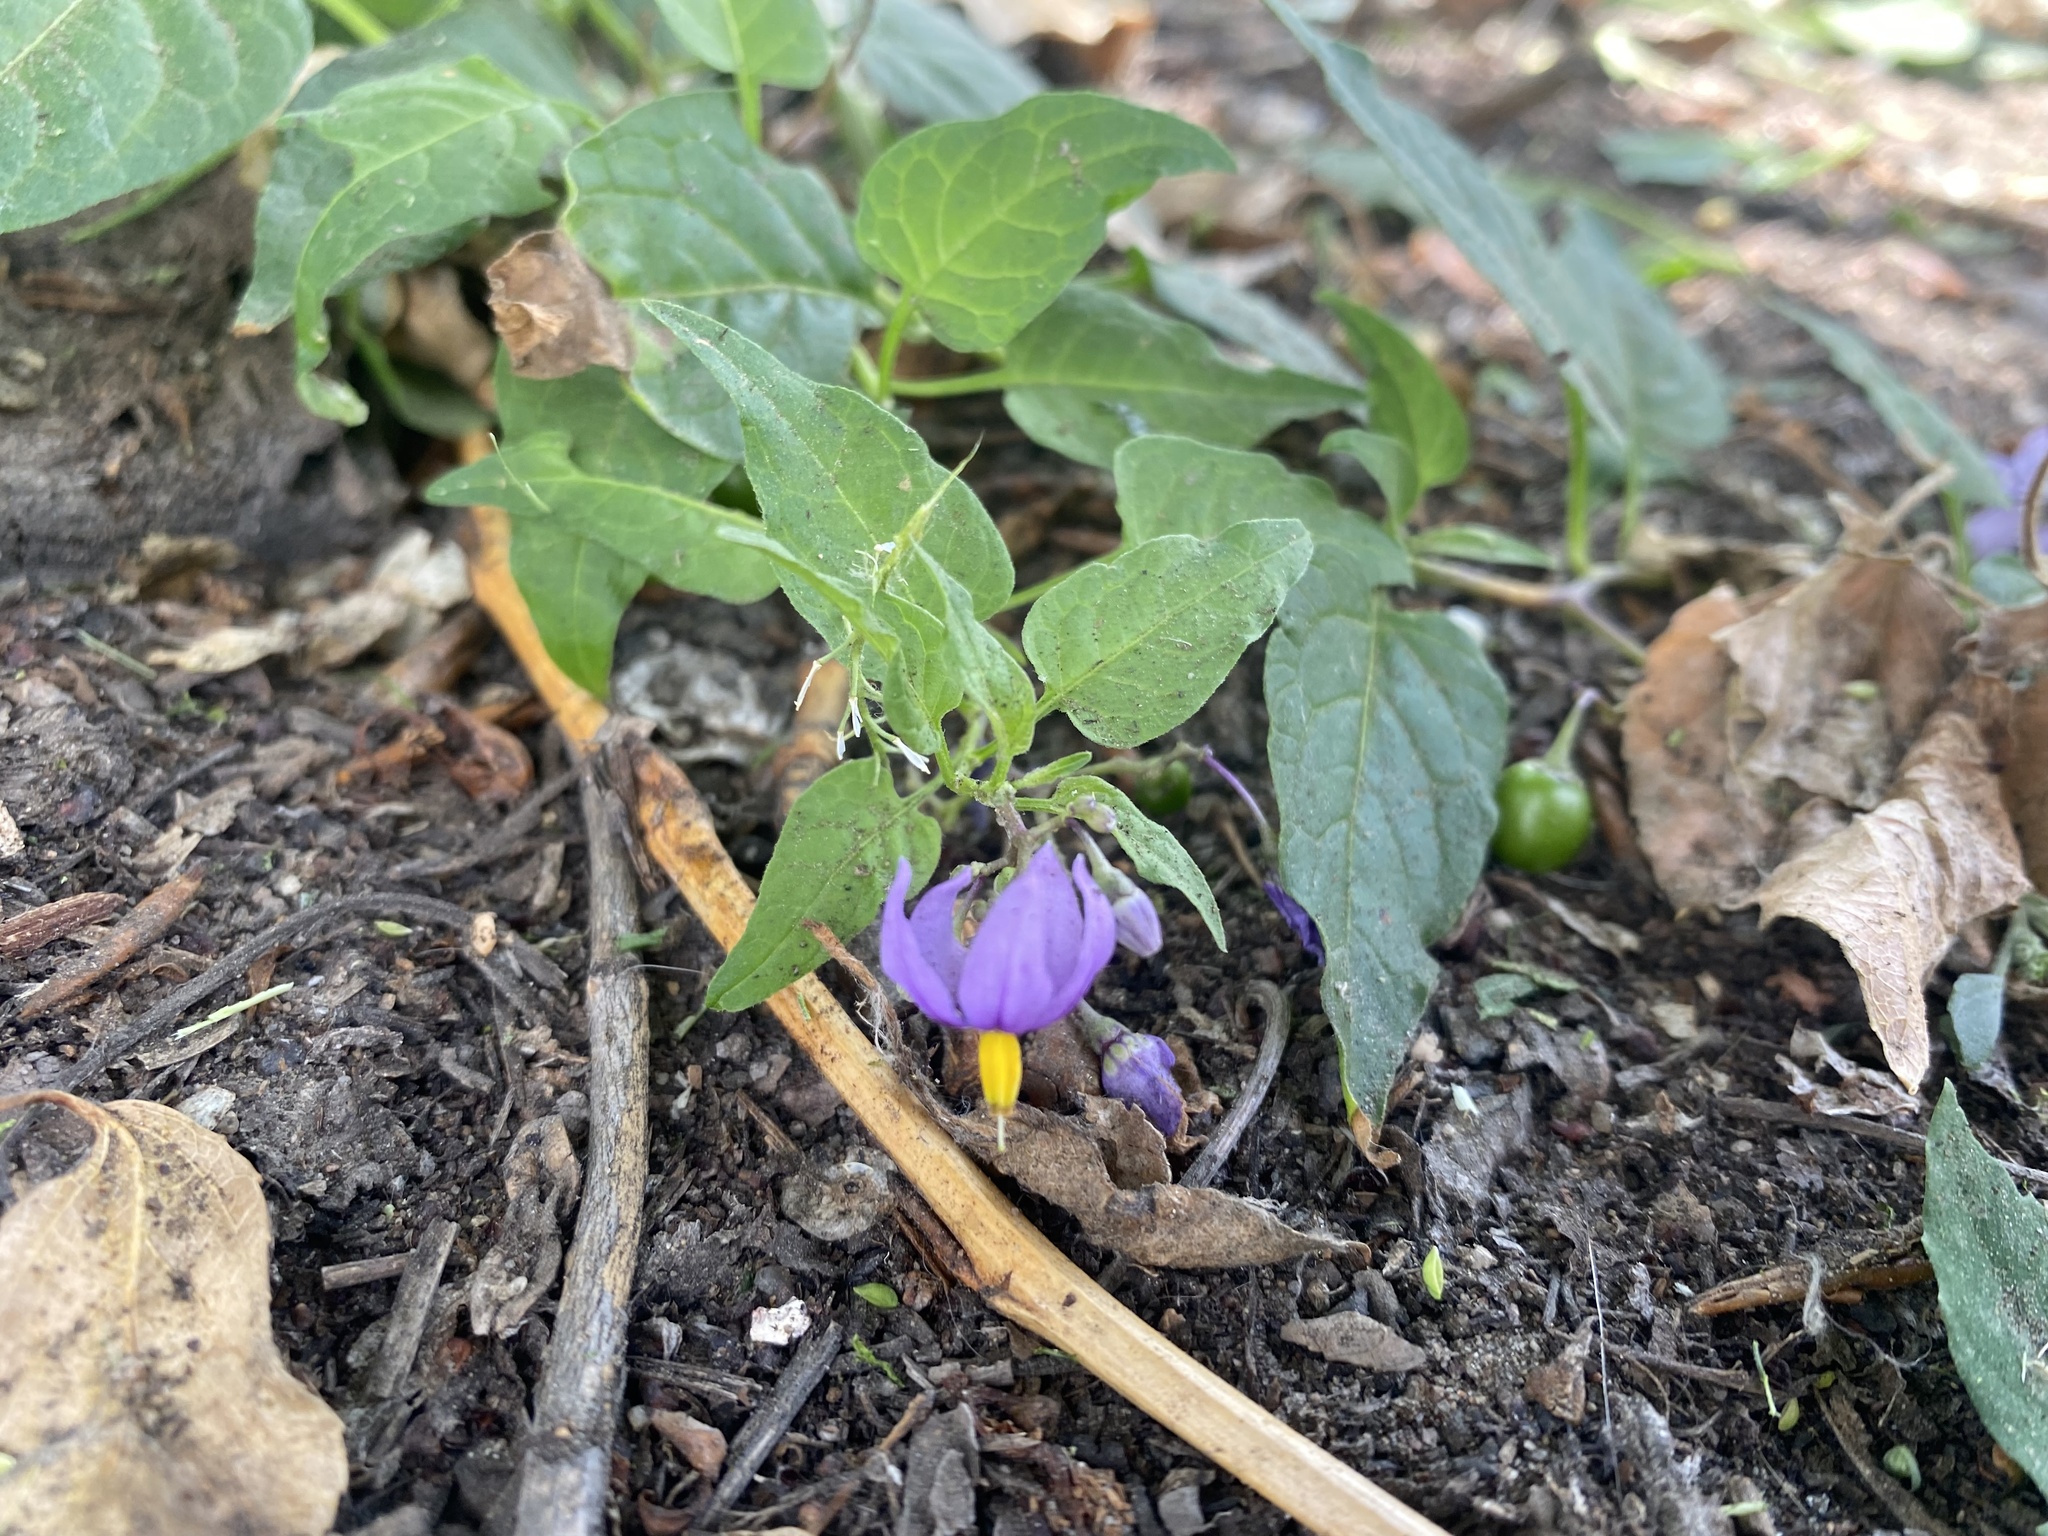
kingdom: Plantae
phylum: Tracheophyta
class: Magnoliopsida
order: Solanales
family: Solanaceae
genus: Solanum
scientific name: Solanum dulcamara
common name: Climbing nightshade
